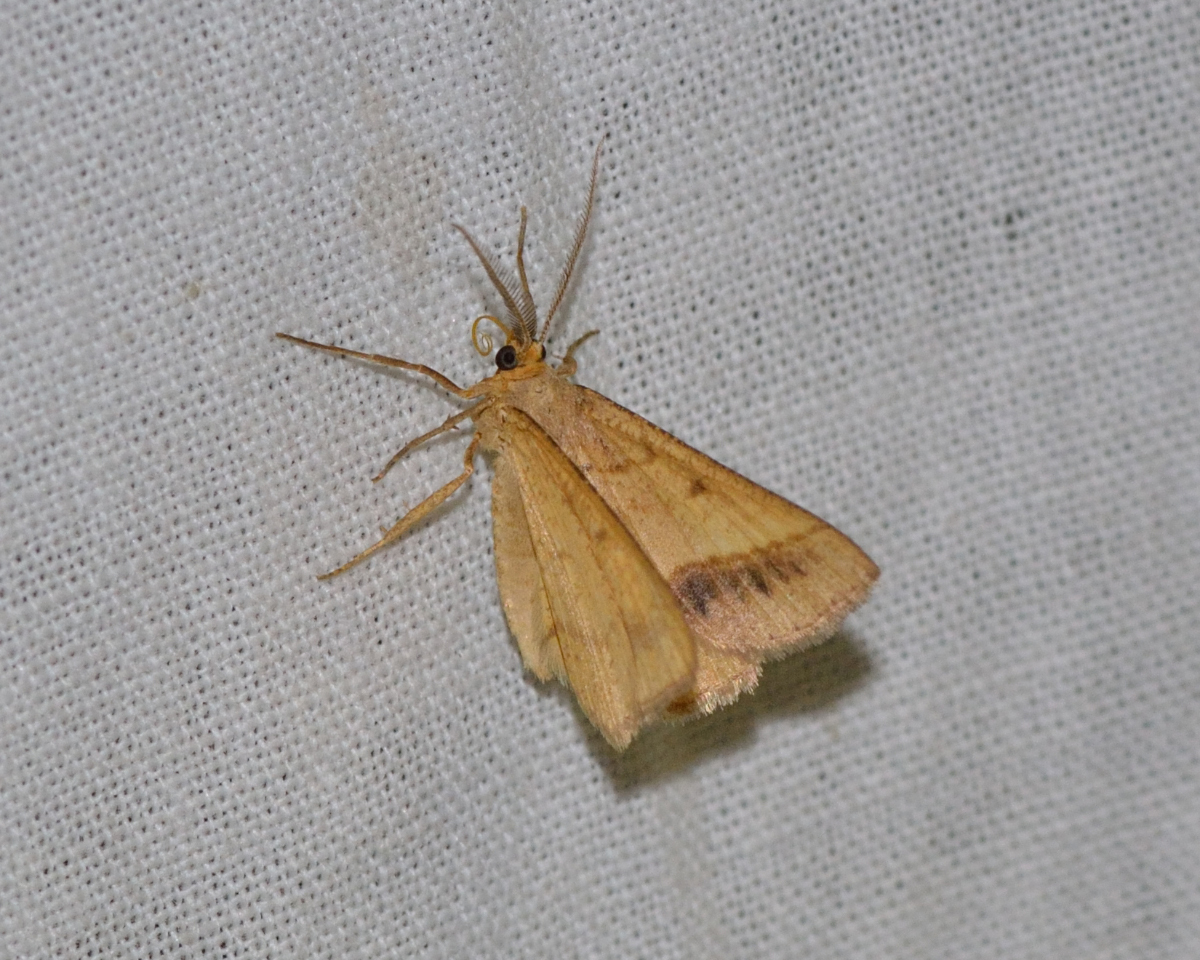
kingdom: Animalia
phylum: Arthropoda
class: Insecta
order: Lepidoptera
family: Geometridae
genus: Tephrina
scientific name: Tephrina arenacearia
